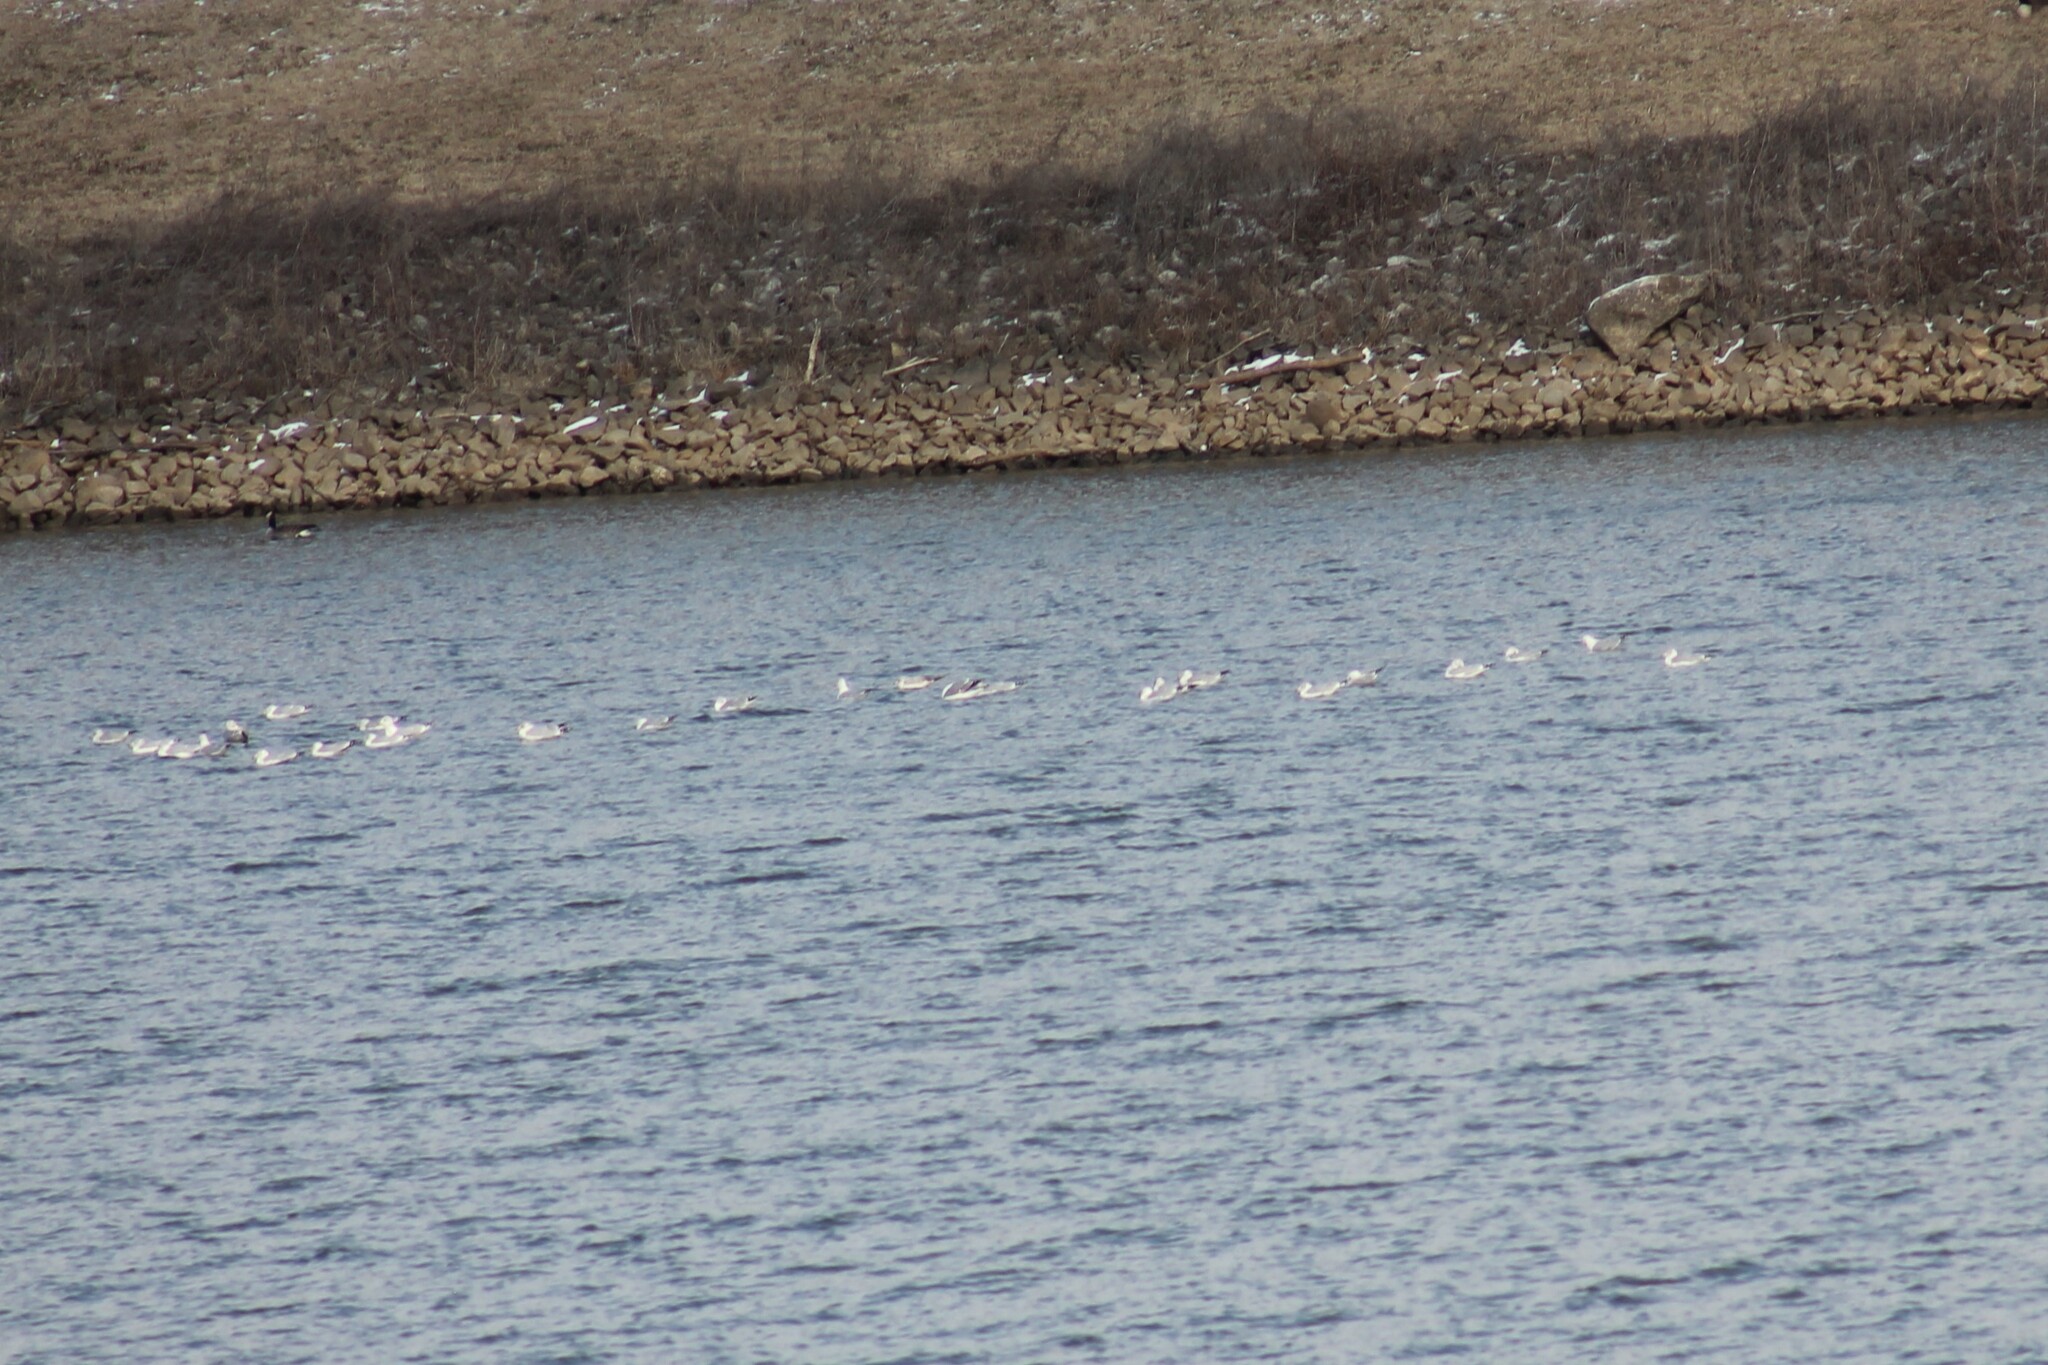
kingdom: Animalia
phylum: Chordata
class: Aves
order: Charadriiformes
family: Laridae
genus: Larus
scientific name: Larus delawarensis
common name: Ring-billed gull
